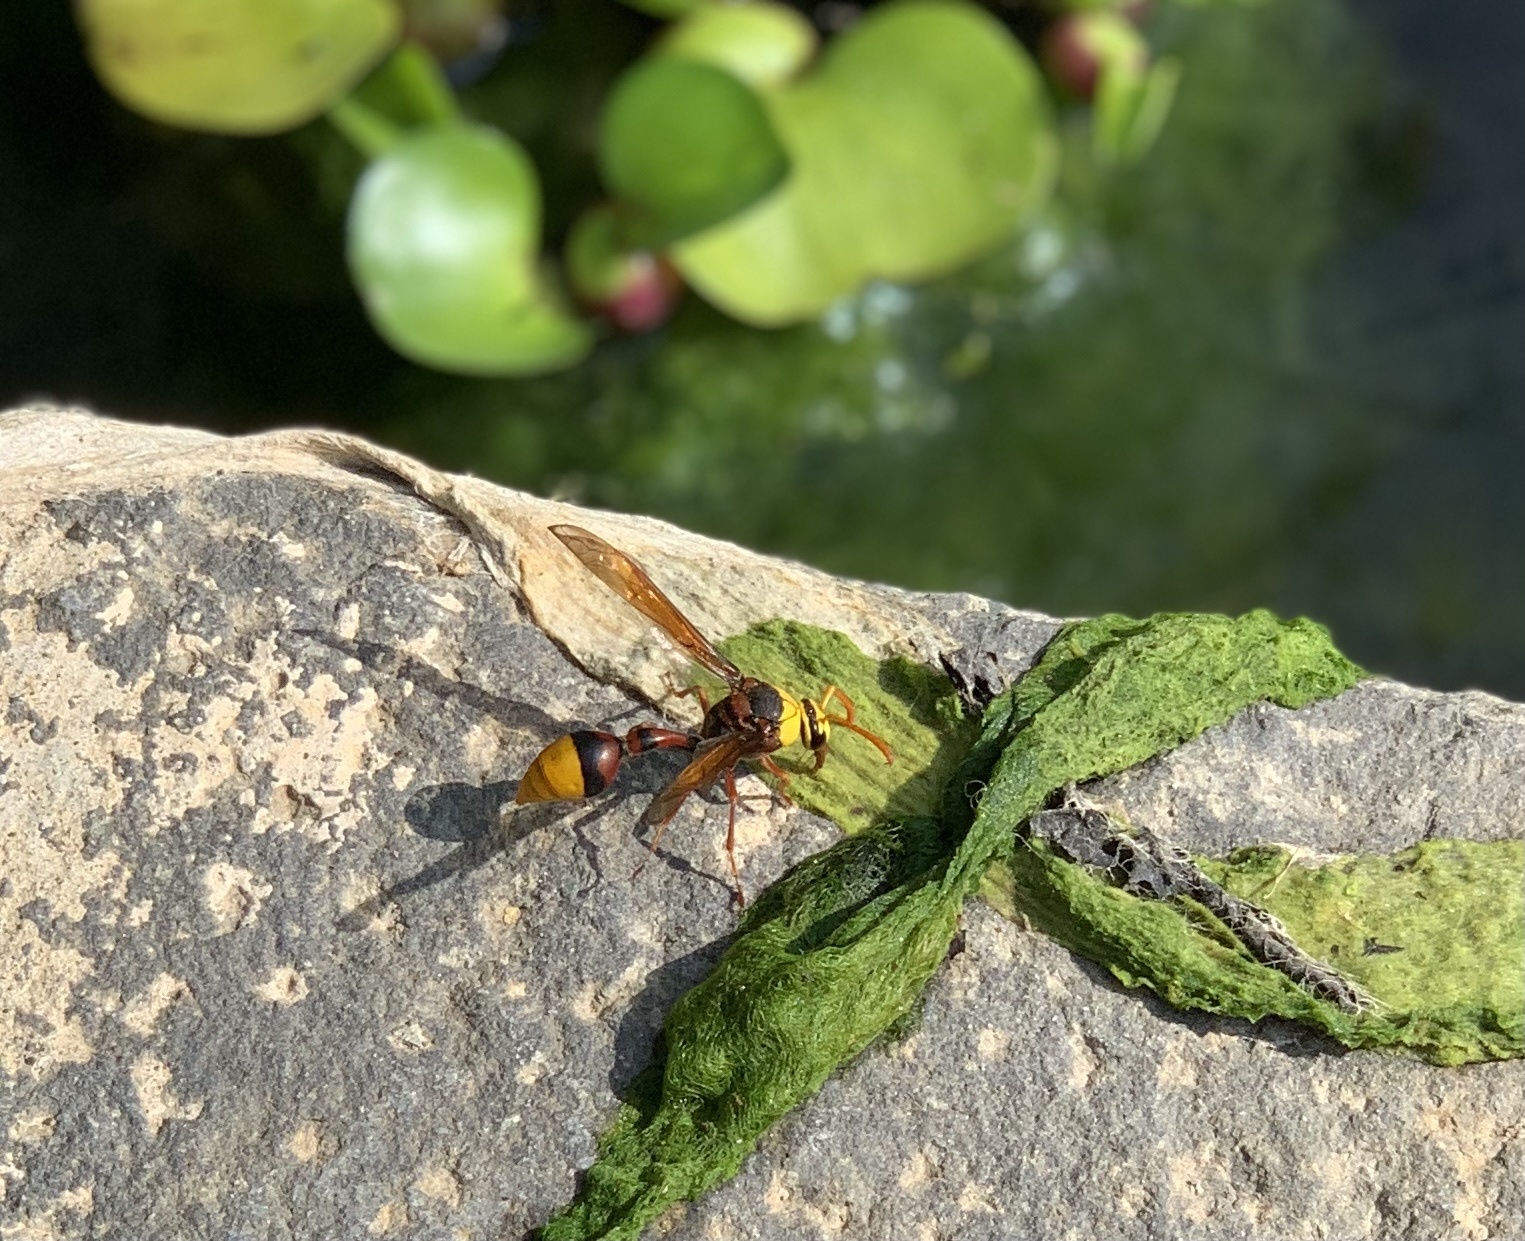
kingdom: Animalia
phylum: Arthropoda
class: Insecta
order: Hymenoptera
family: Eumenidae
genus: Delta
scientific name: Delta pyriforme
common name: Wasp
